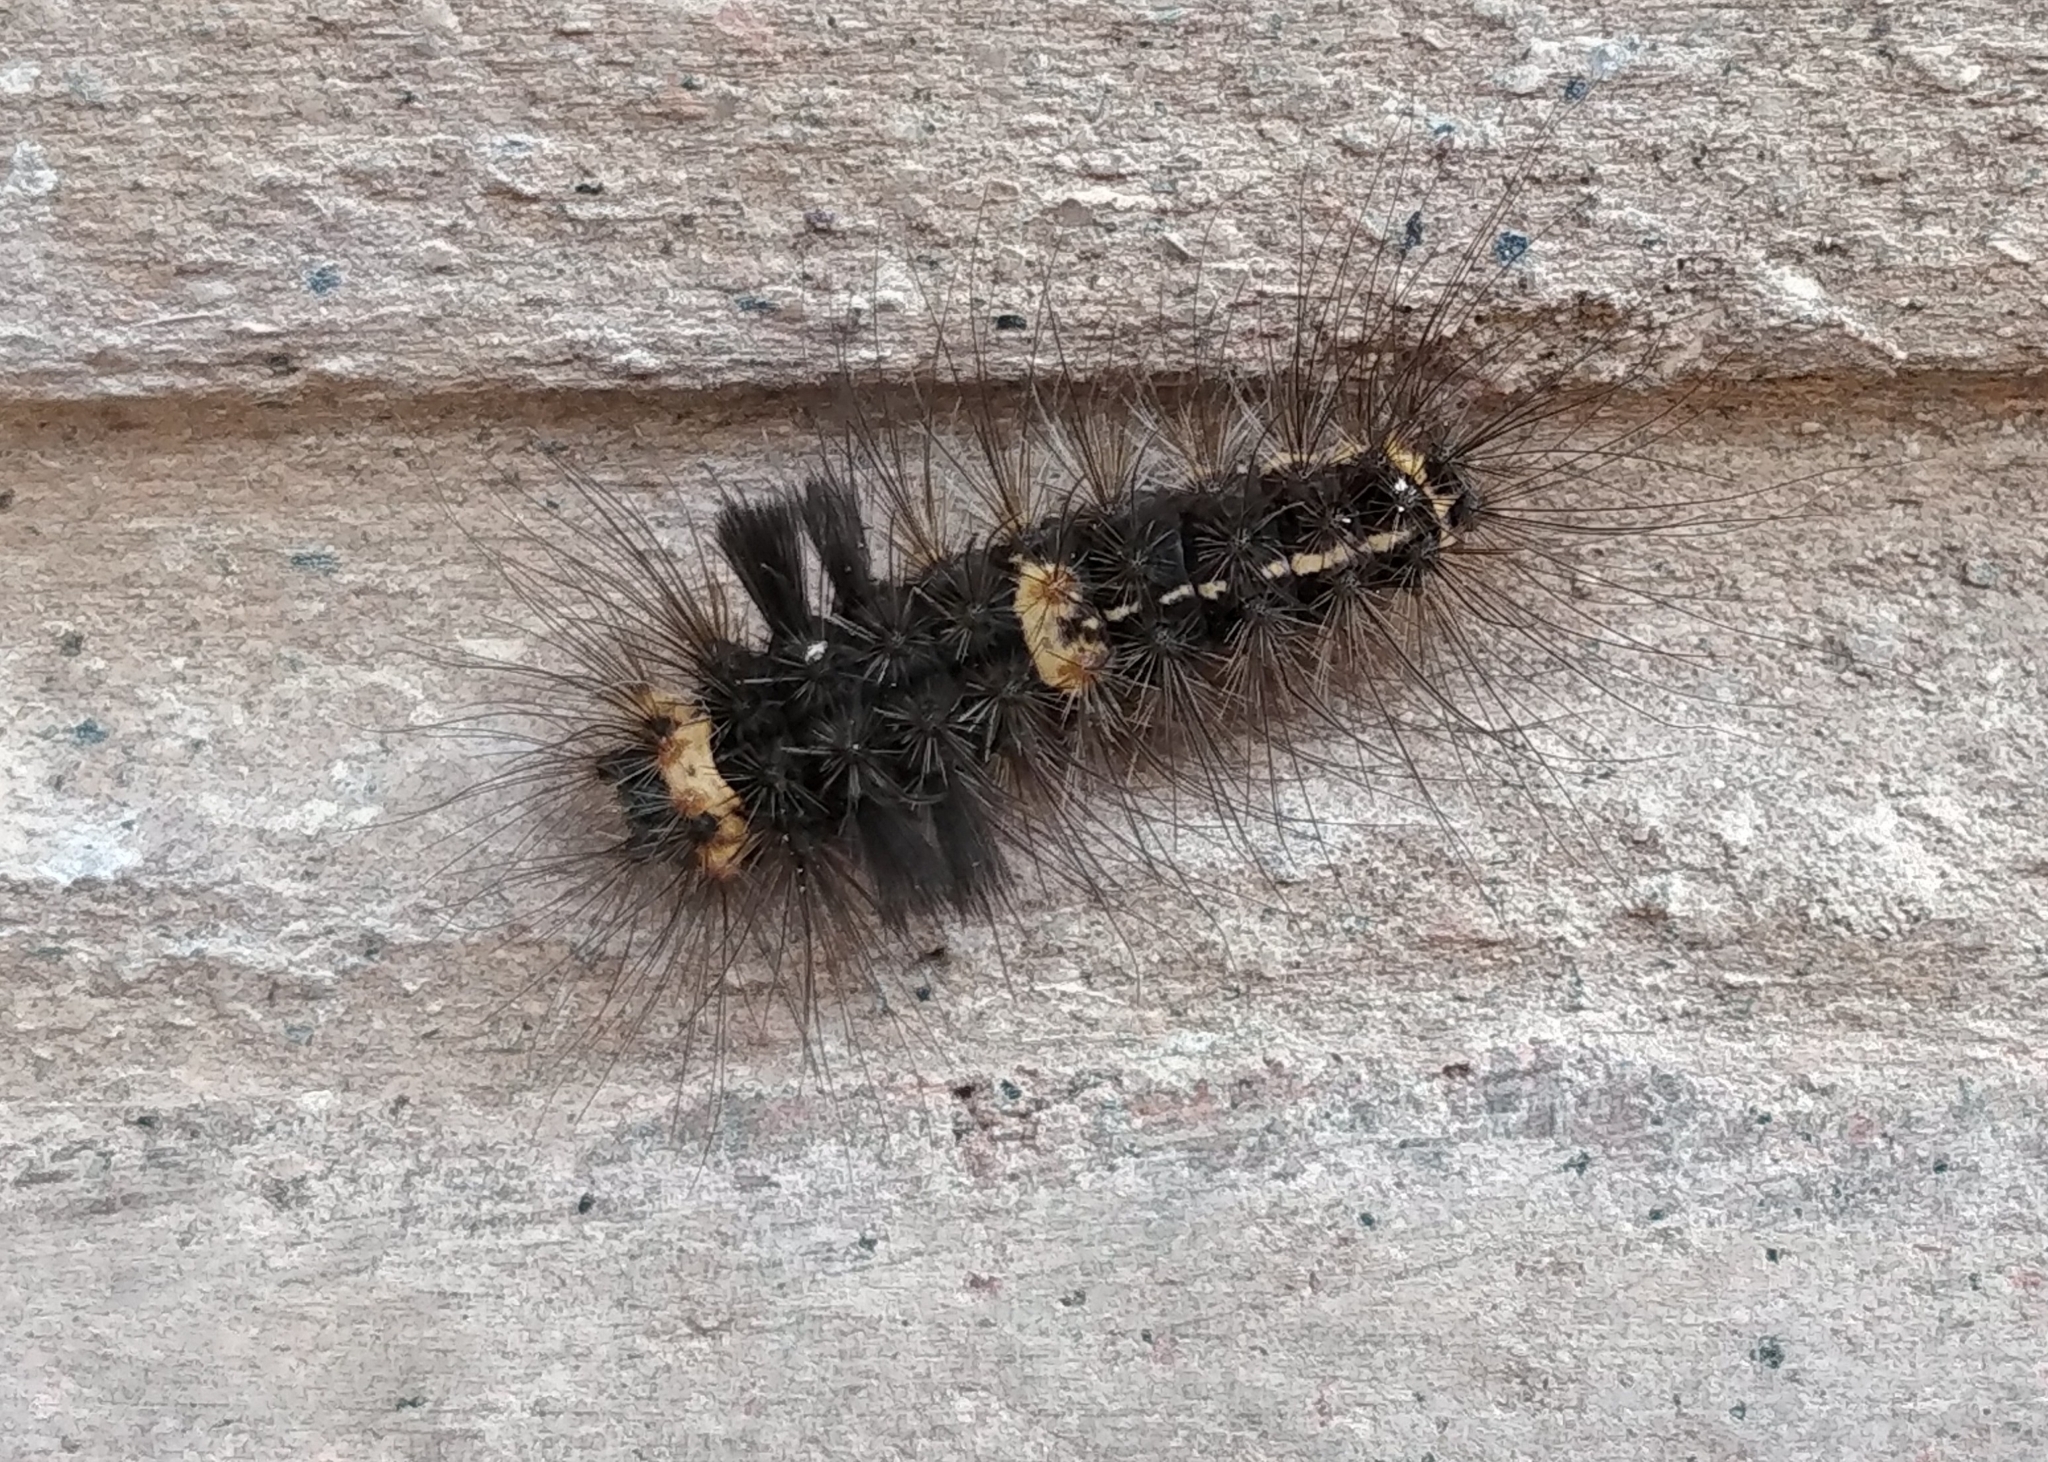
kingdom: Animalia
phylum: Arthropoda
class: Insecta
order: Lepidoptera
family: Erebidae
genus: Nepita
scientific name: Nepita conferta
